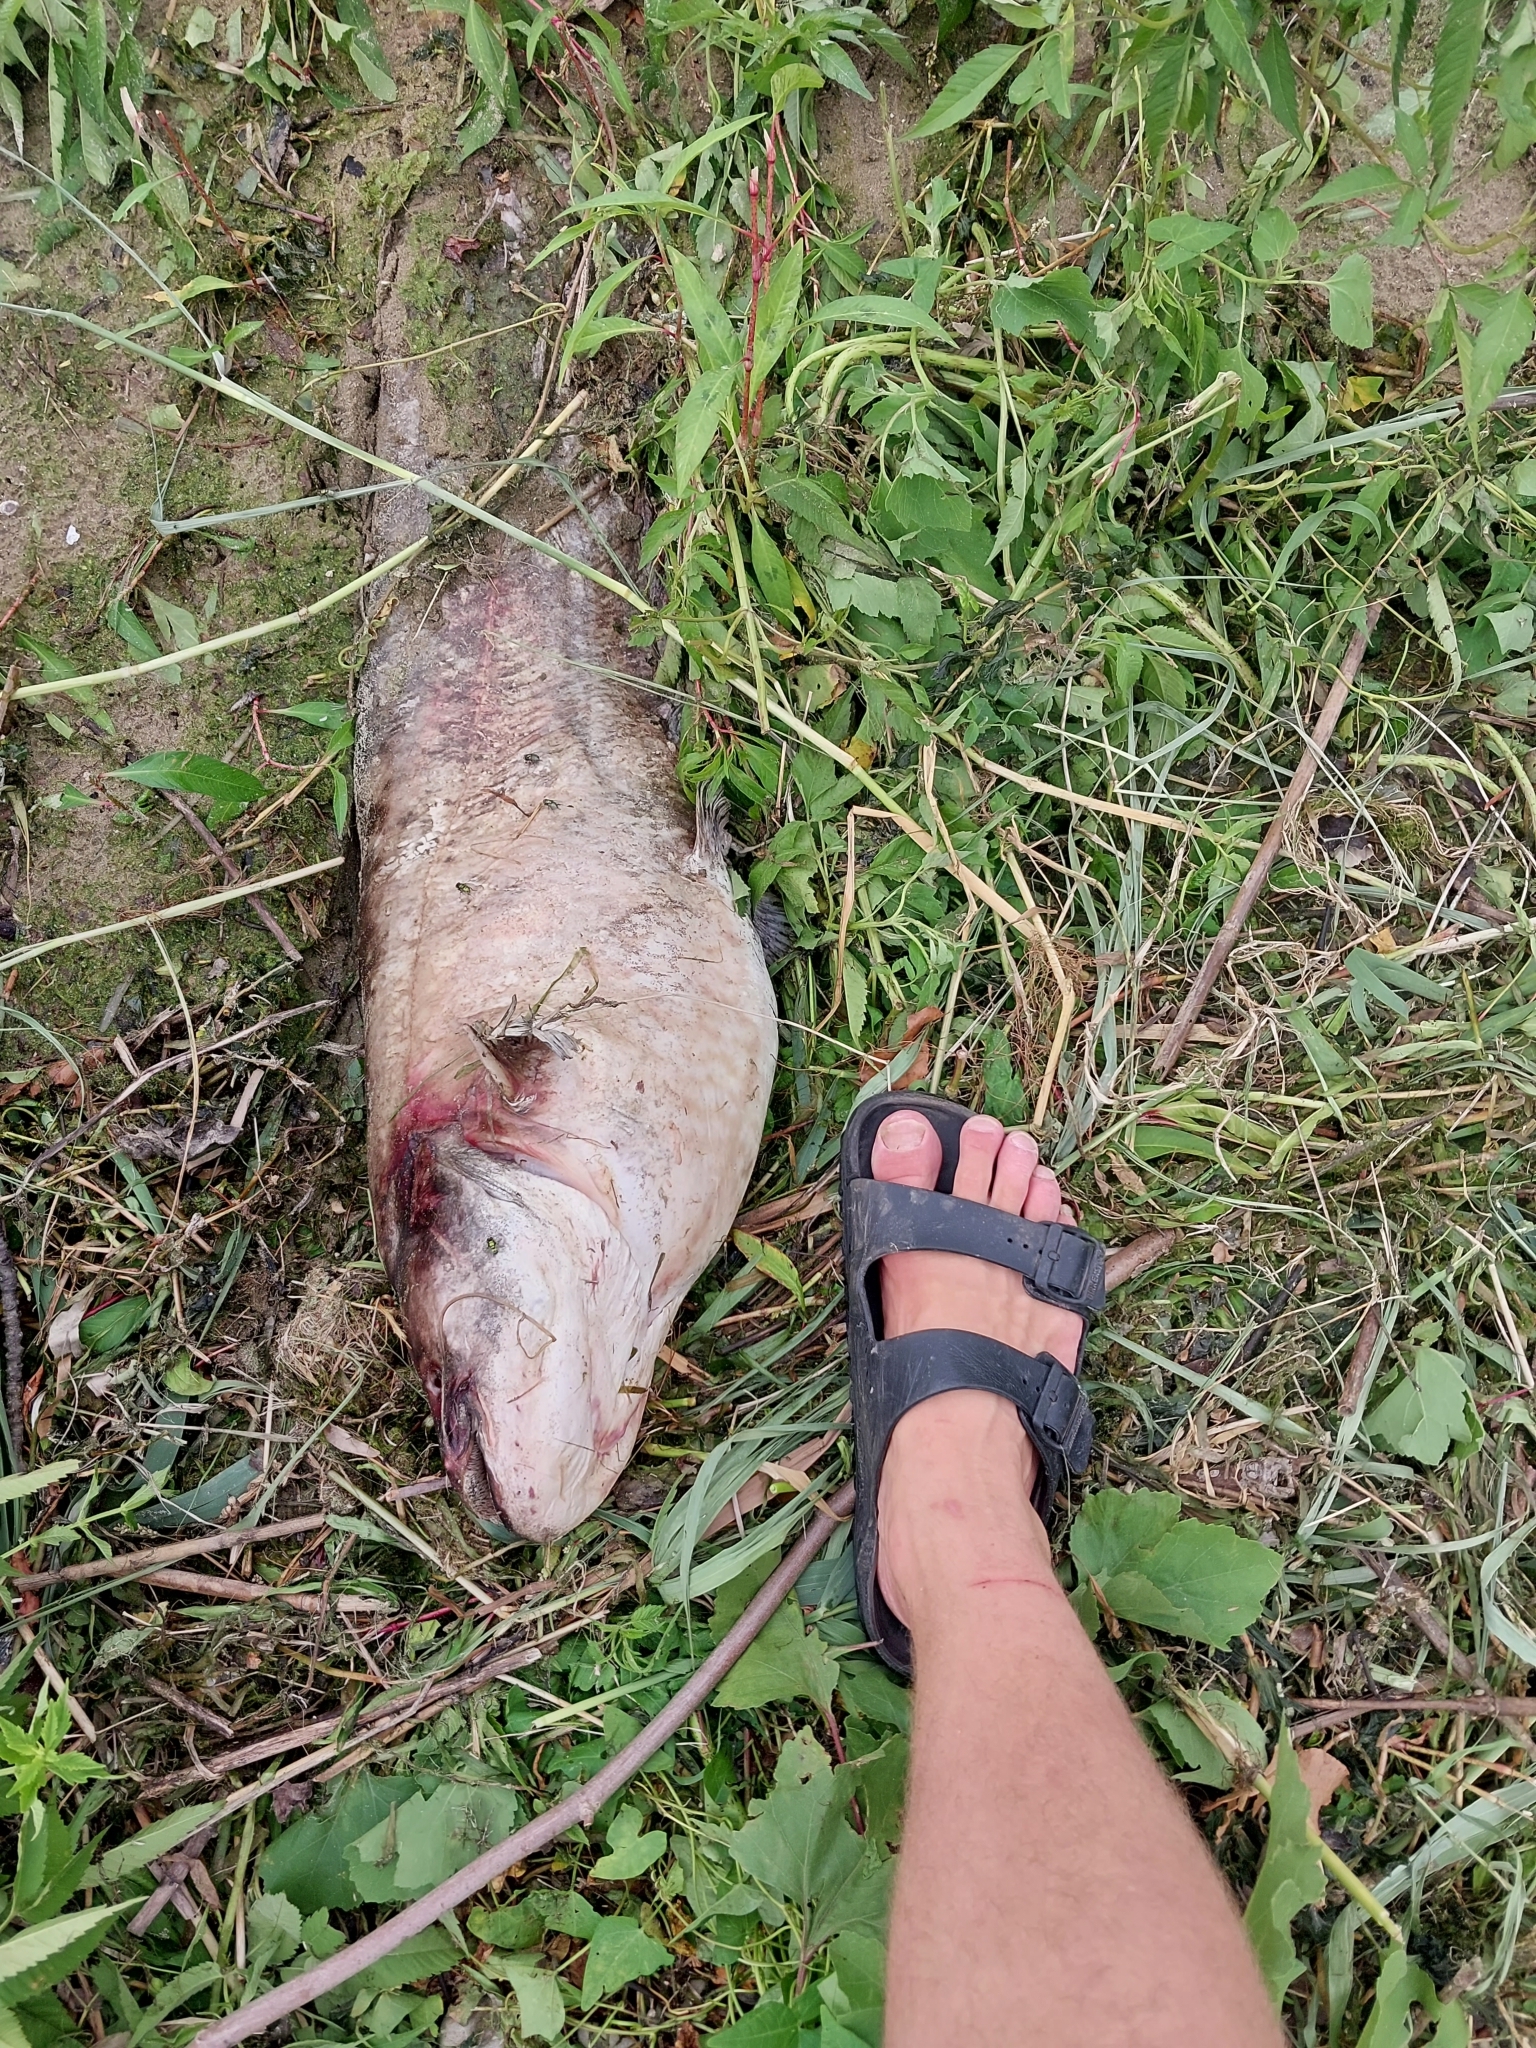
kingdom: Animalia
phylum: Chordata
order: Siluriformes
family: Siluridae
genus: Silurus
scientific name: Silurus glanis
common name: Wels
